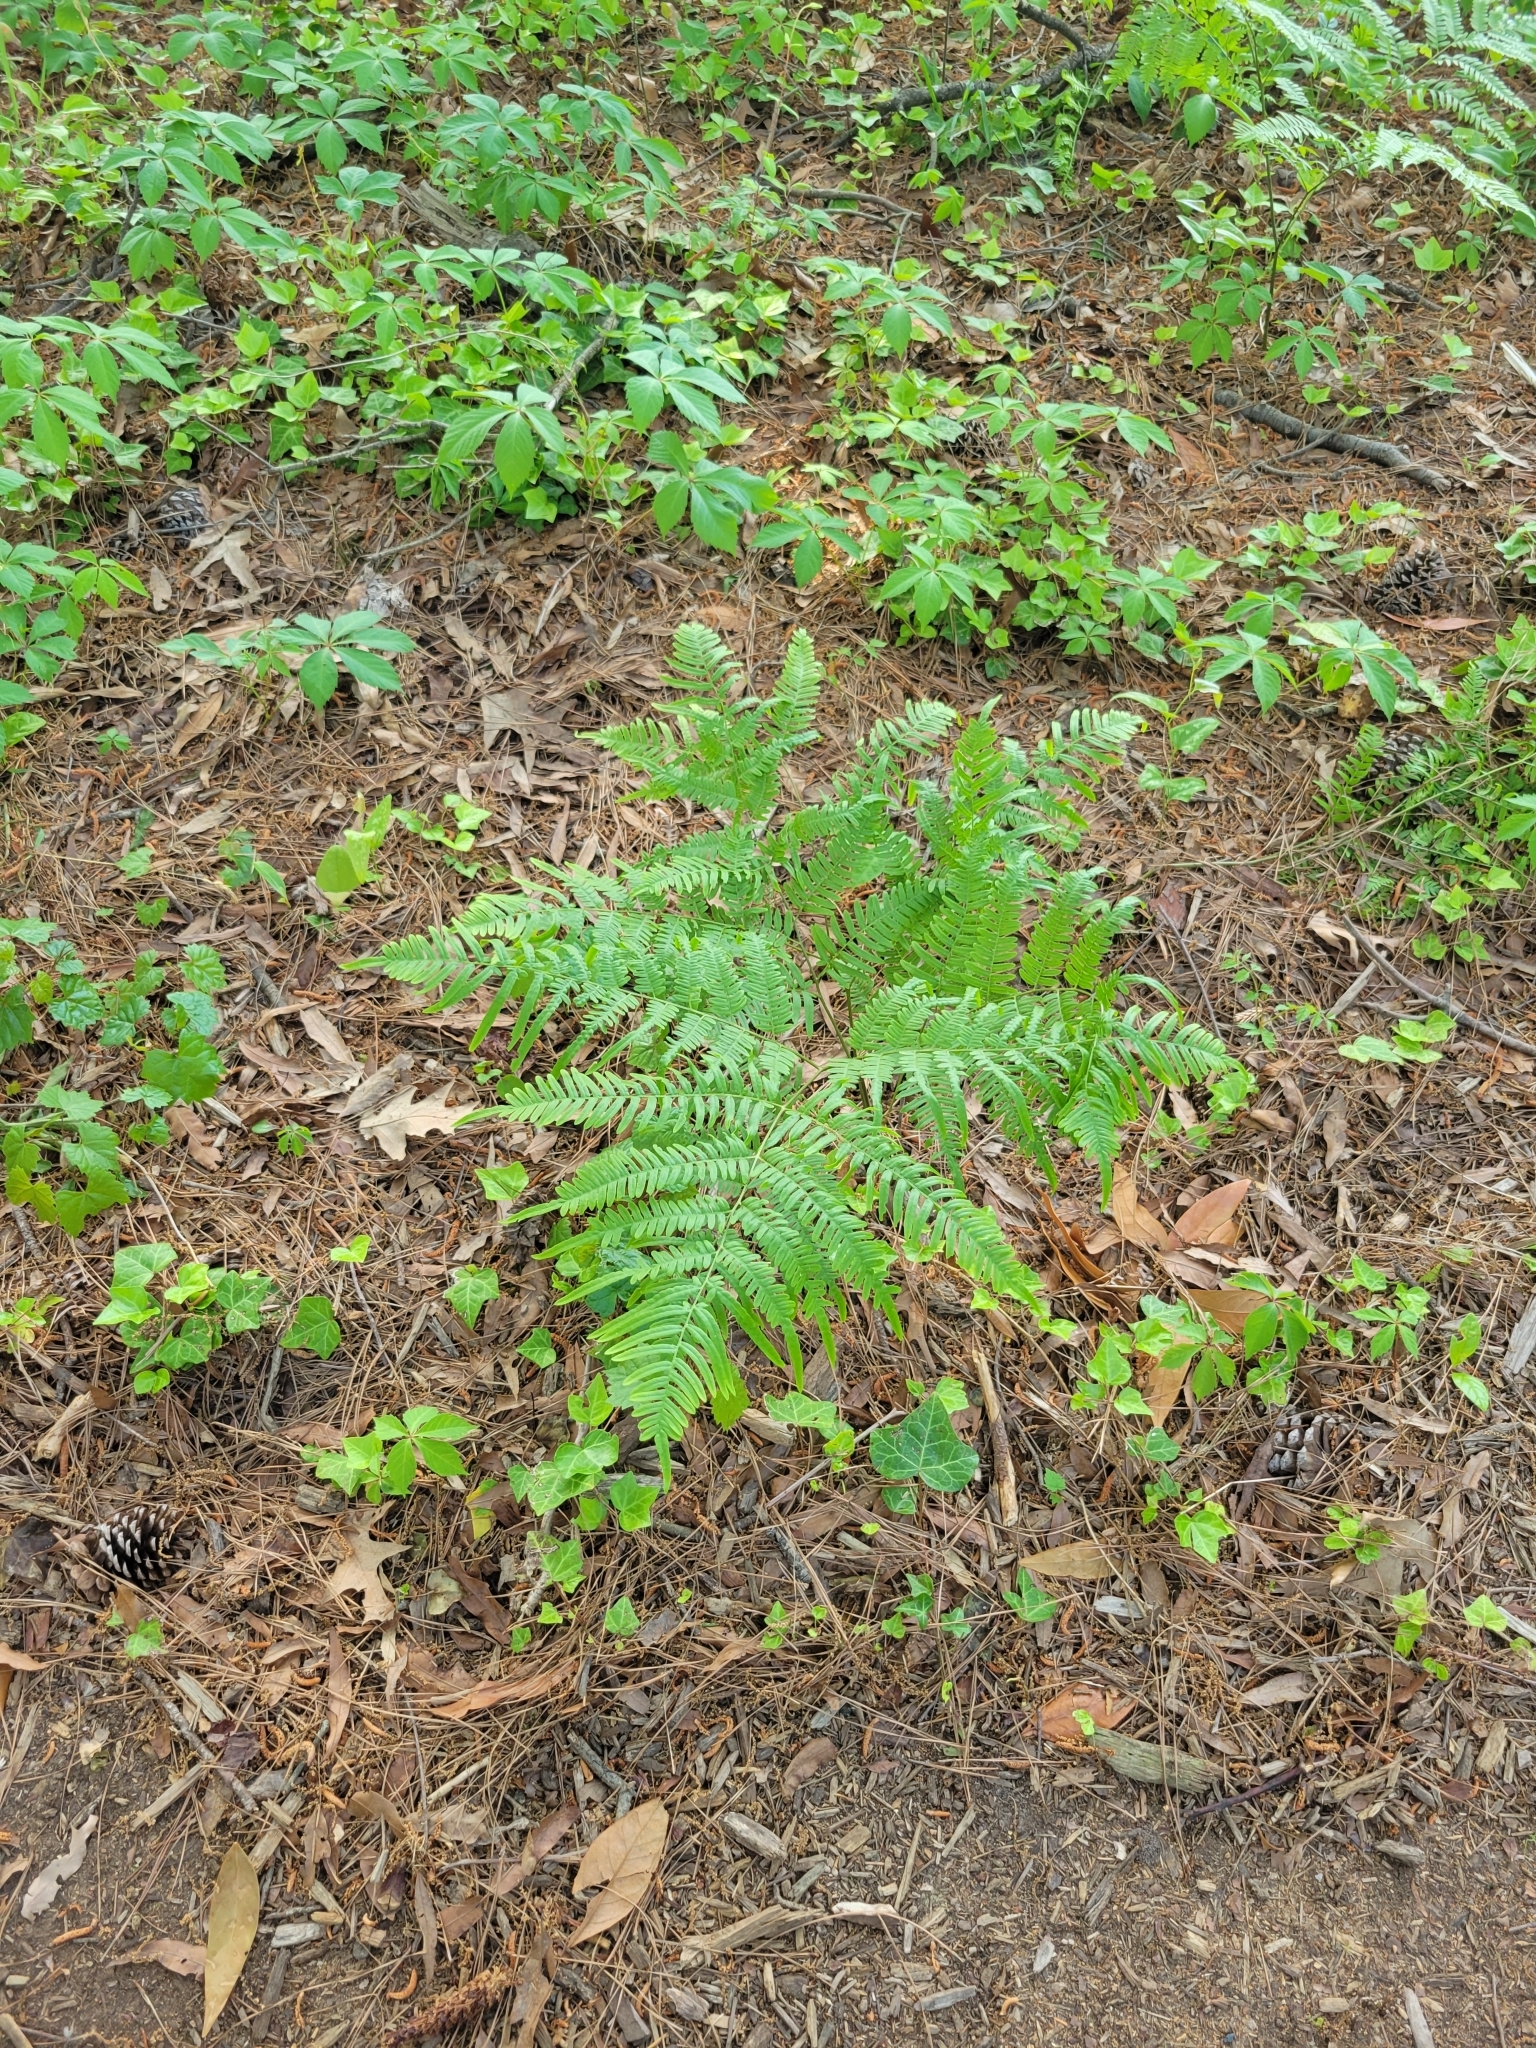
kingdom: Plantae
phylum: Tracheophyta
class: Polypodiopsida
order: Polypodiales
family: Dennstaedtiaceae
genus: Pteridium
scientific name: Pteridium aquilinum
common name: Bracken
